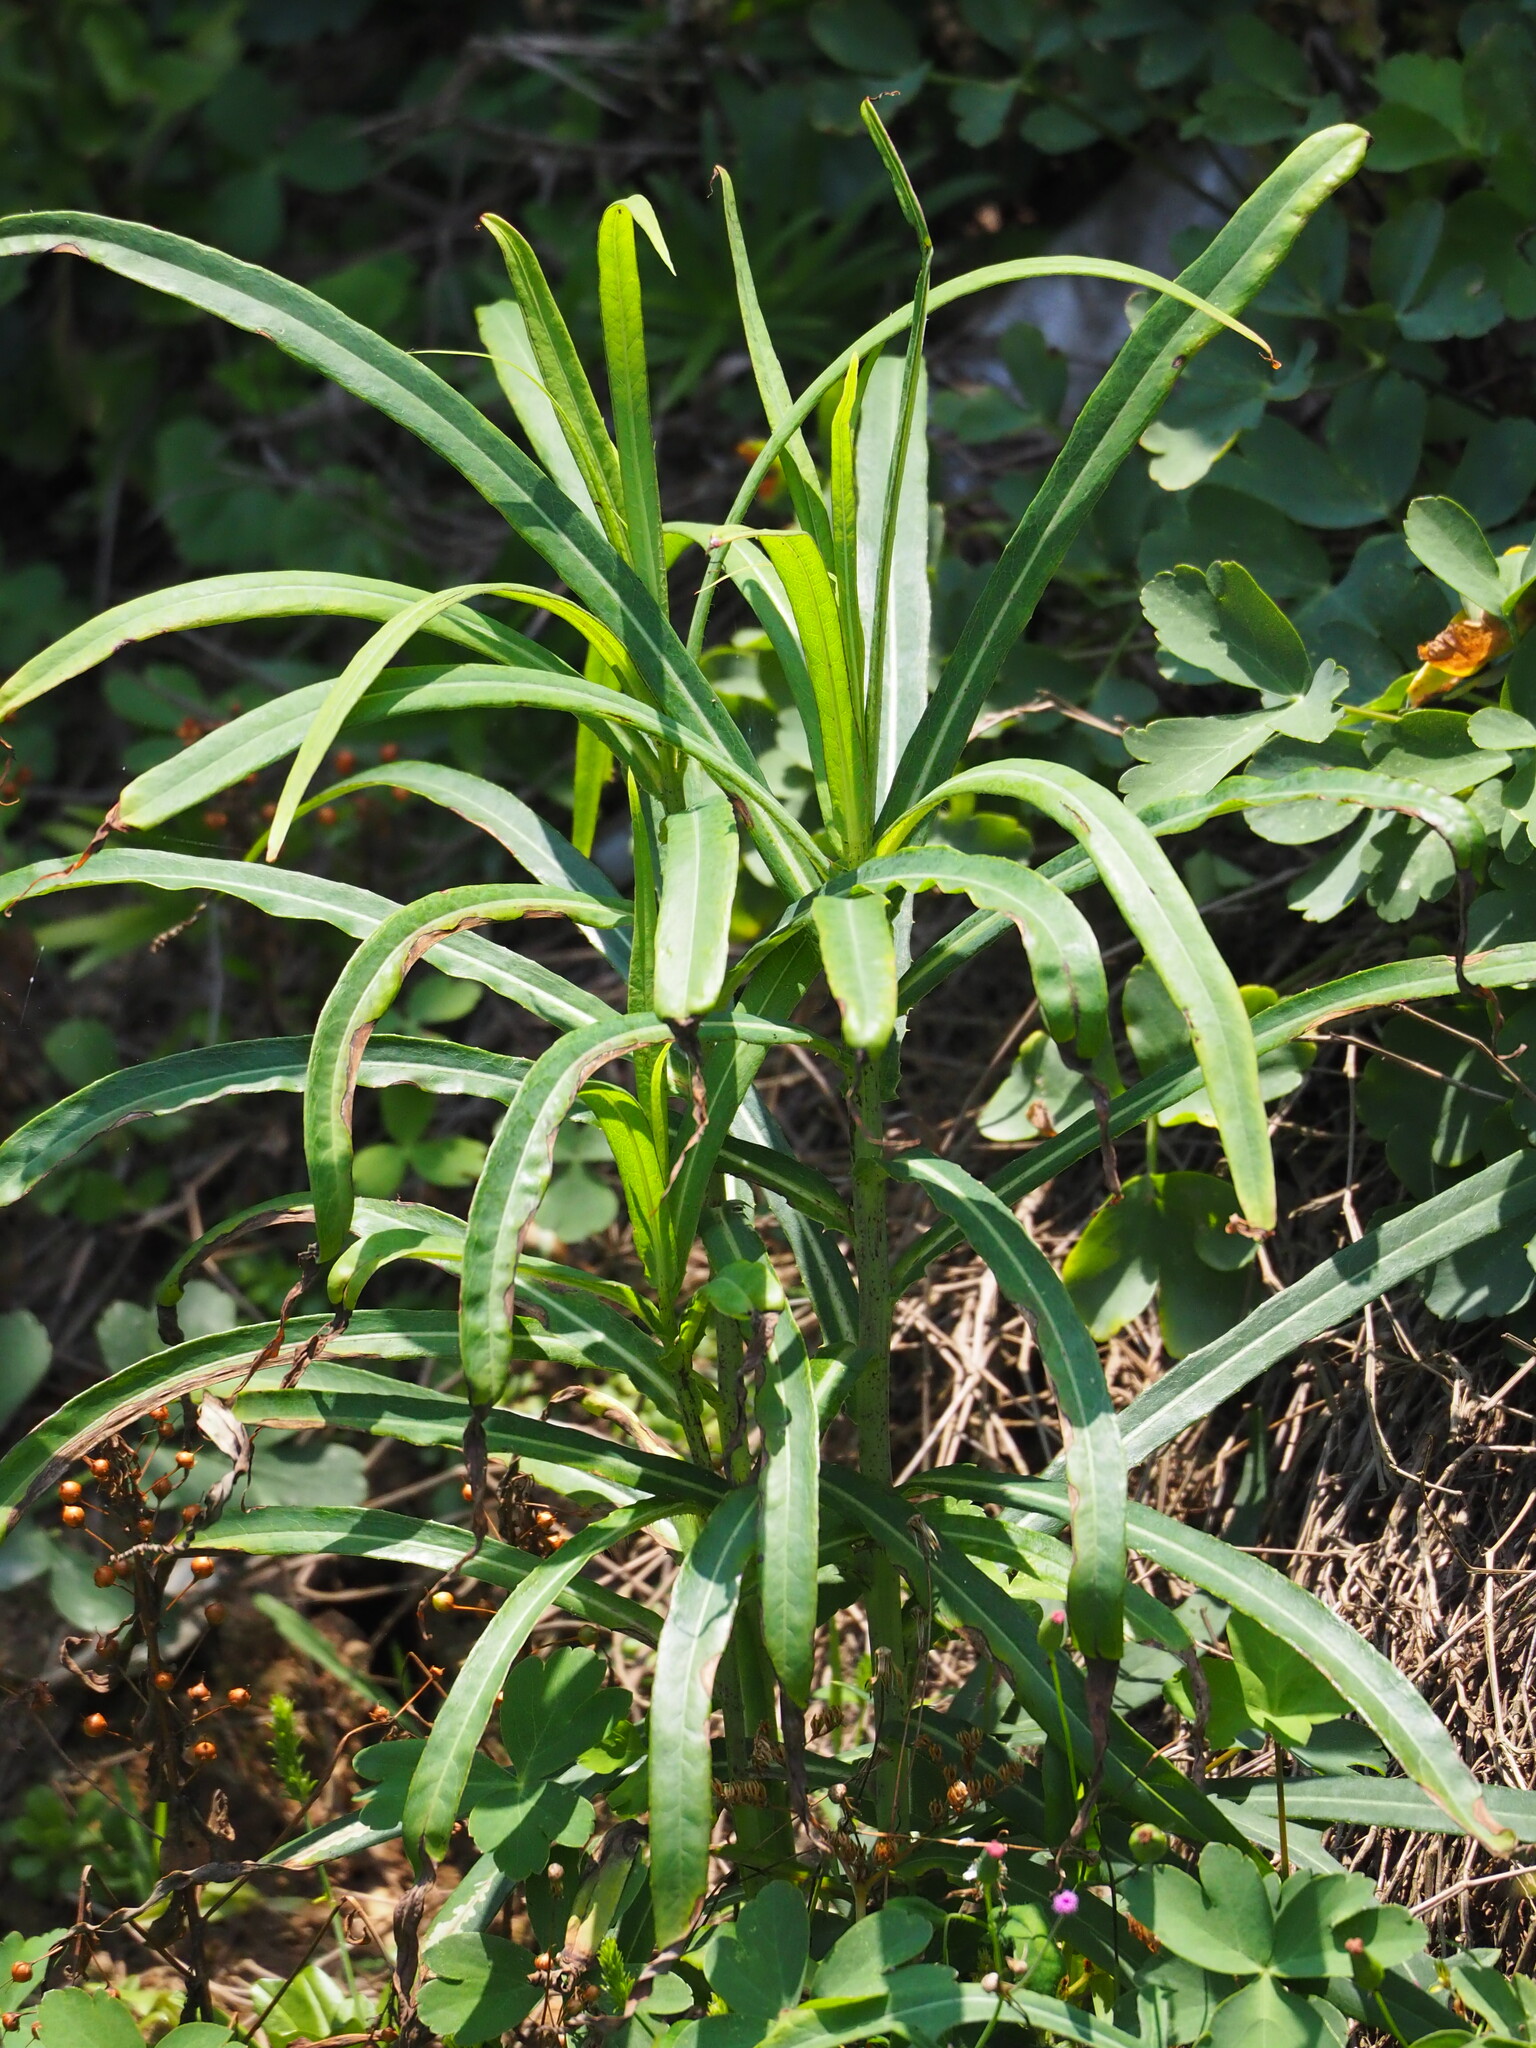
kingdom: Plantae
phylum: Tracheophyta
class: Magnoliopsida
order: Asterales
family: Asteraceae
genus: Lactuca
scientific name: Lactuca indica
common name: Wild lettuce
